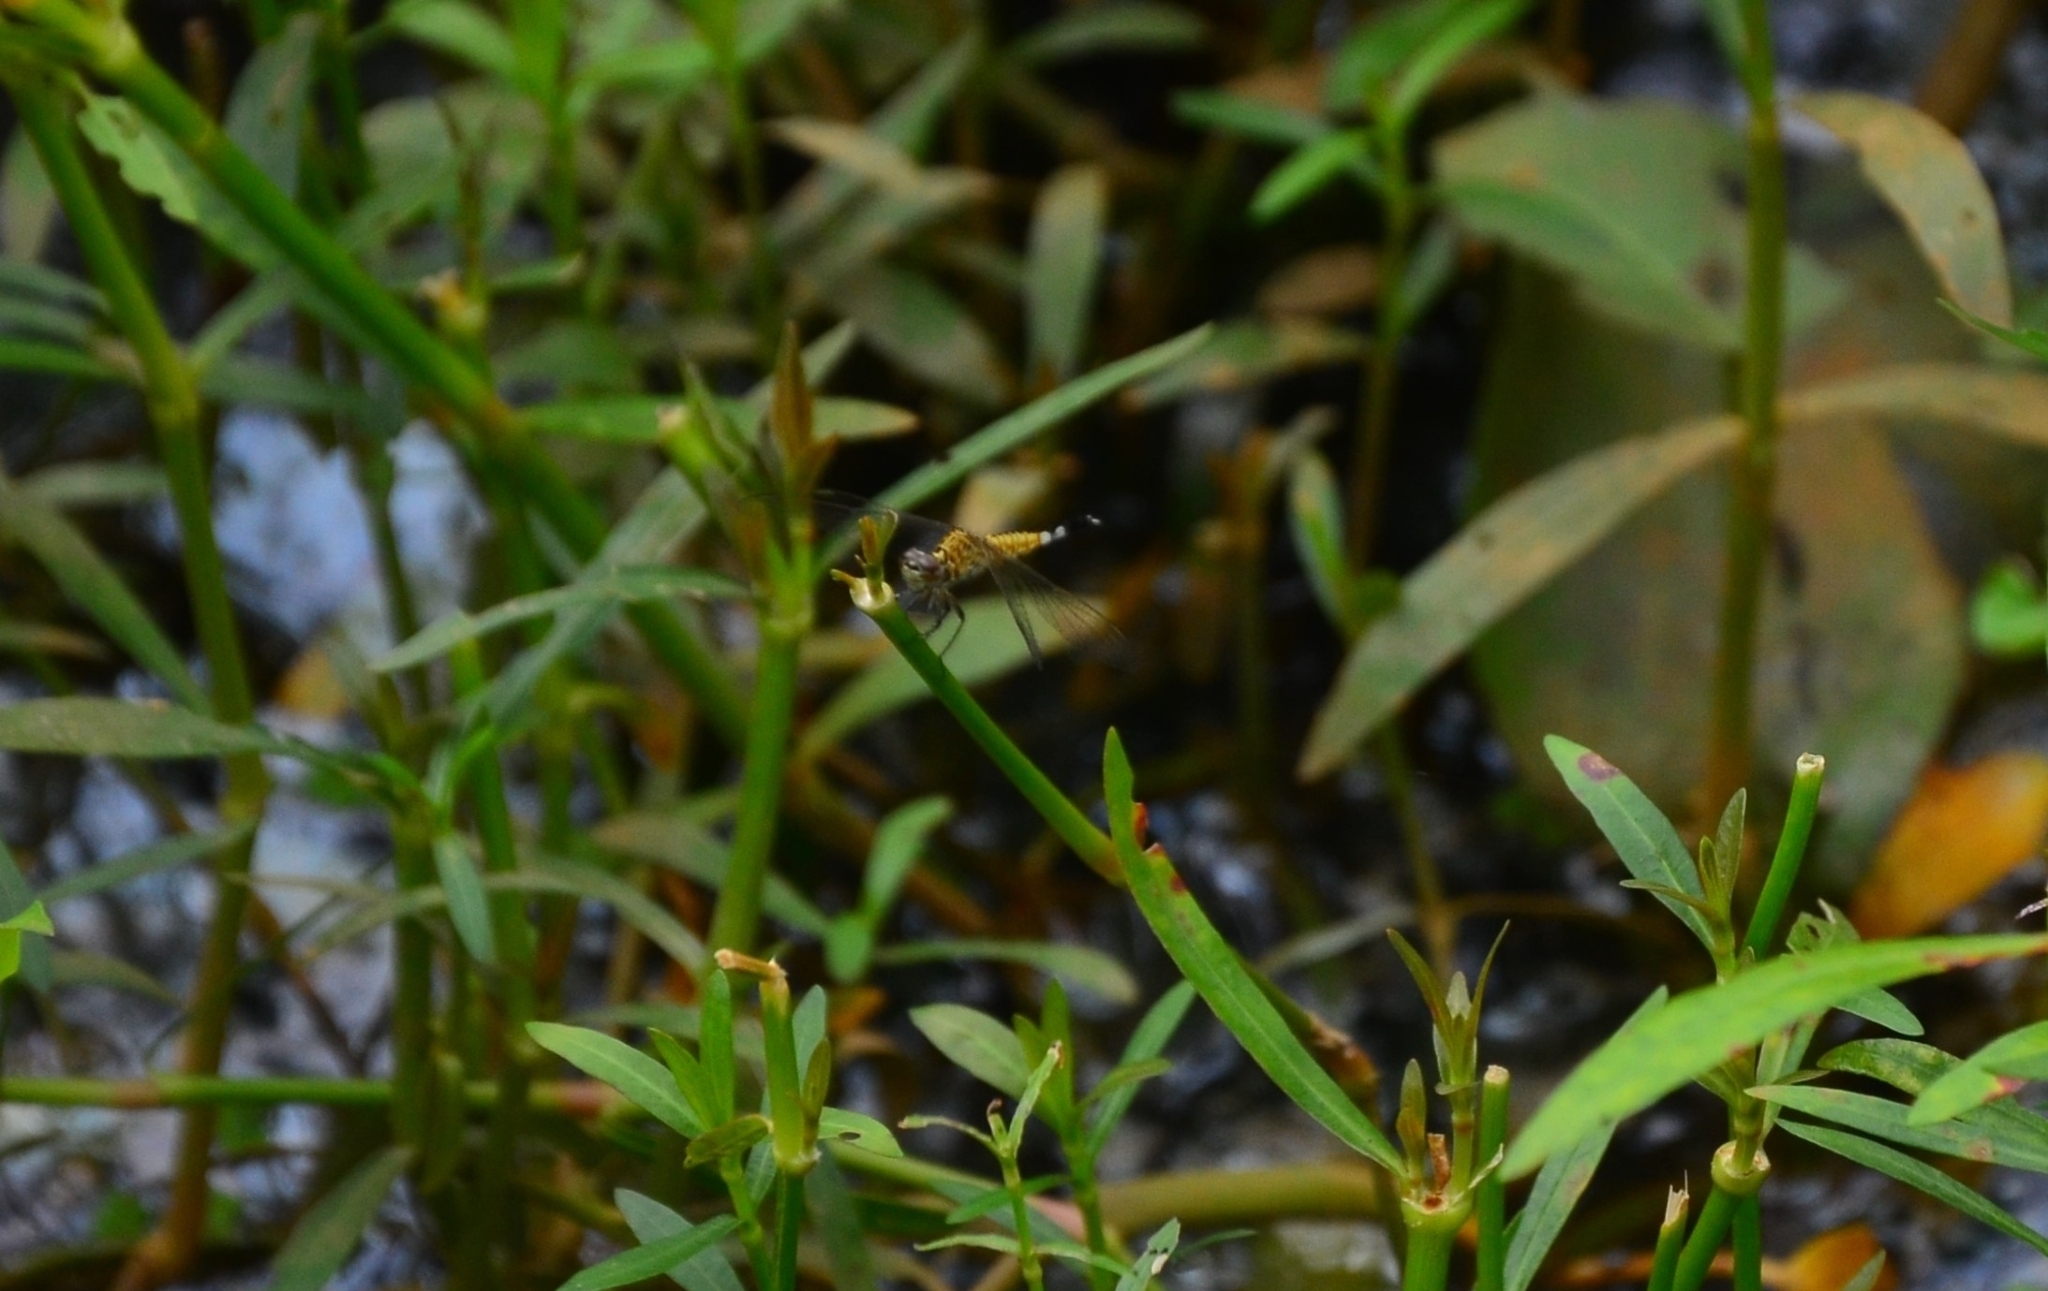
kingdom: Animalia
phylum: Arthropoda
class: Insecta
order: Odonata
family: Libellulidae
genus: Acisoma
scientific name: Acisoma panorpoides
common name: Asian pintail
